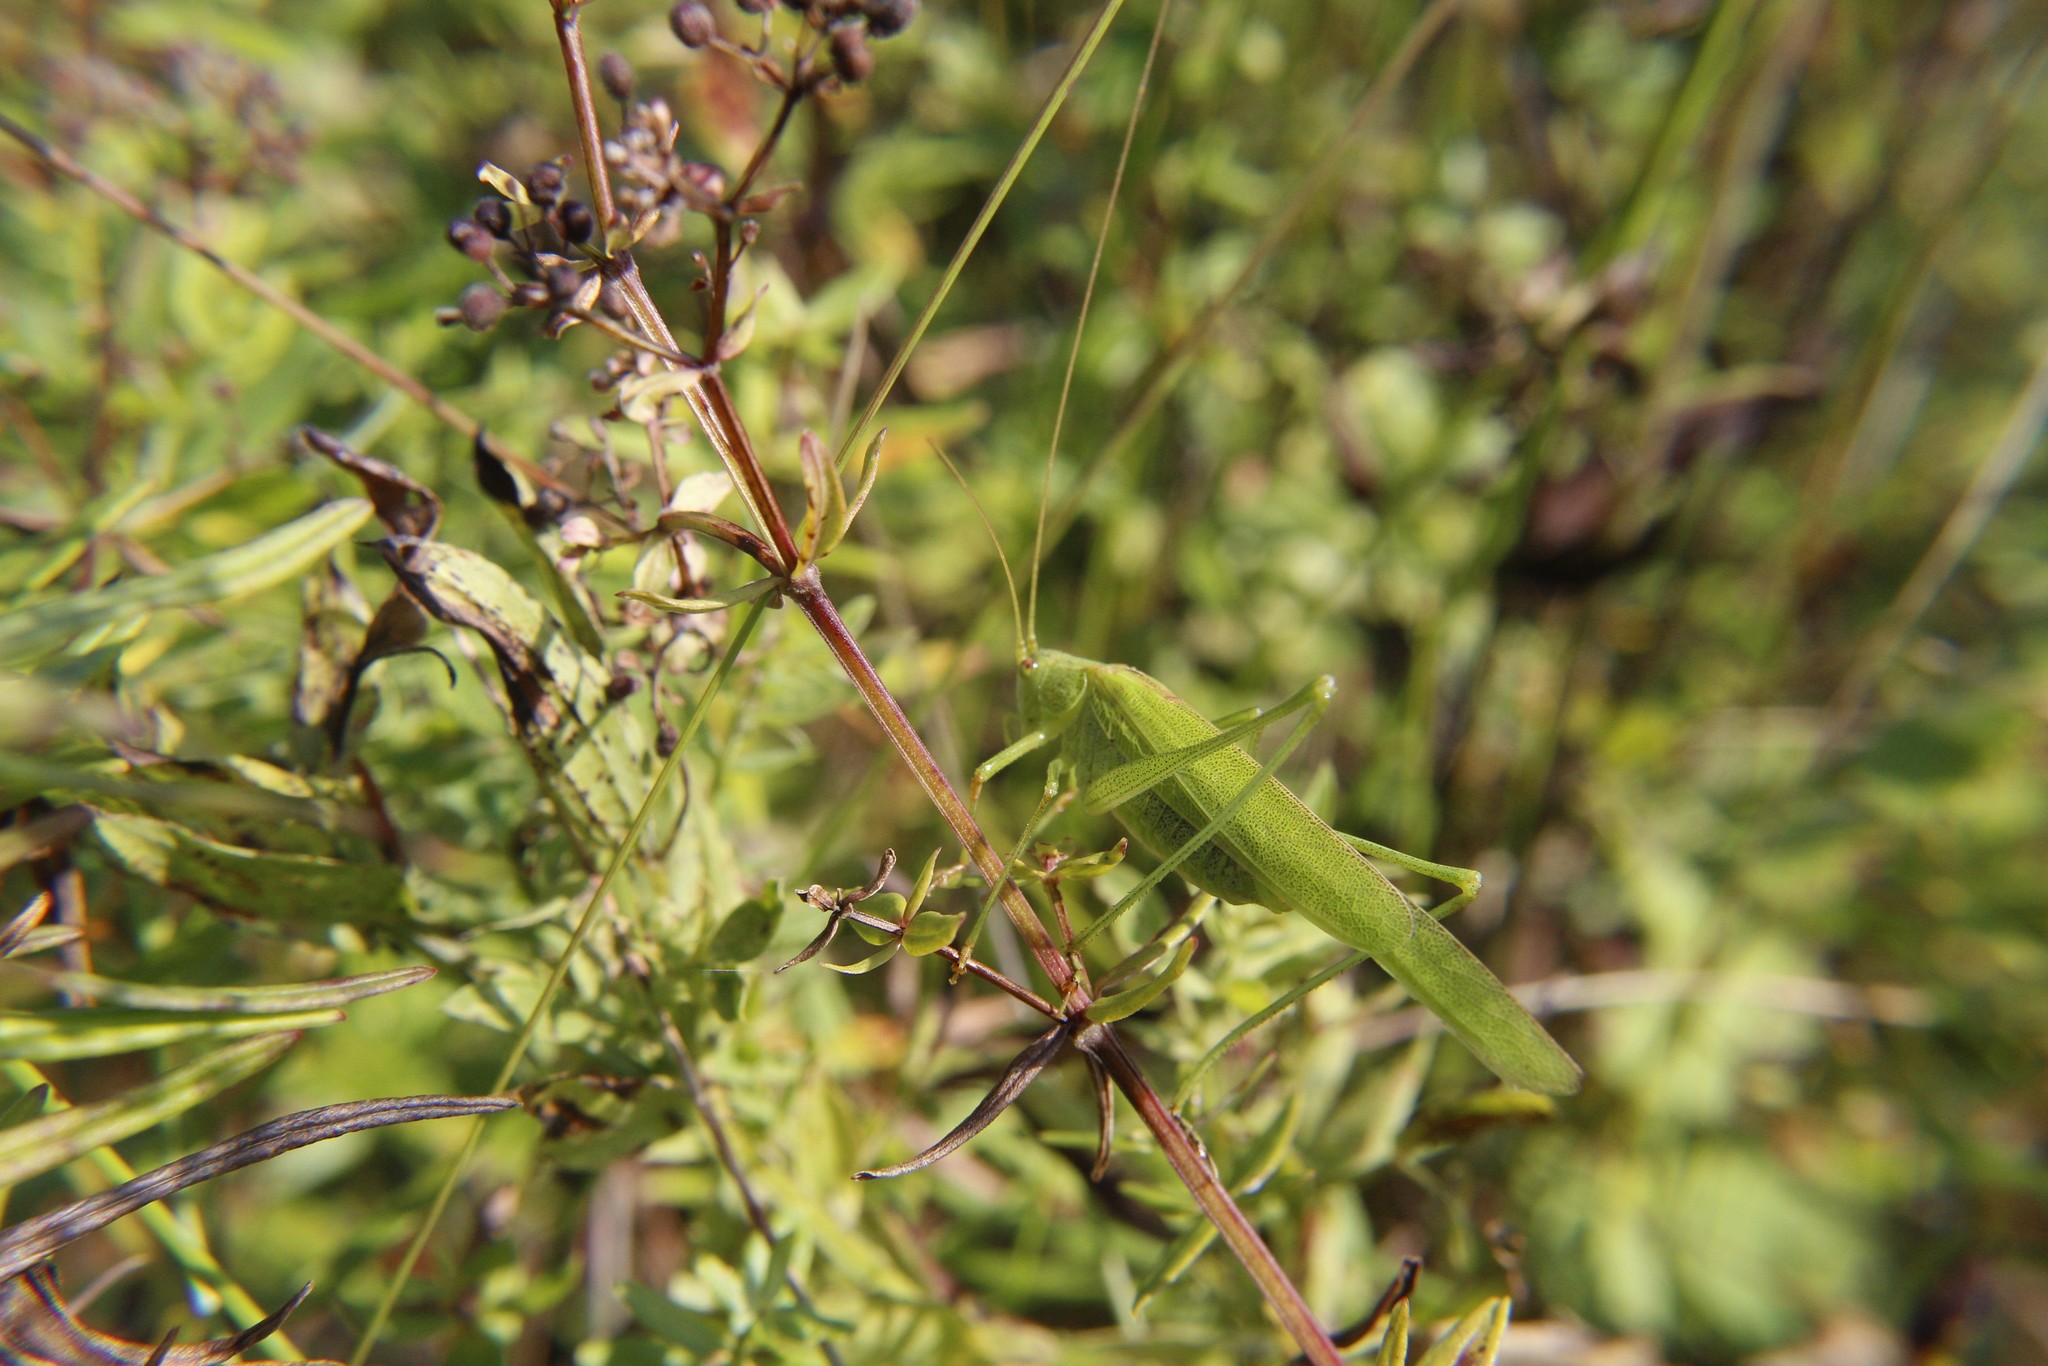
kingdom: Animalia
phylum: Arthropoda
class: Insecta
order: Orthoptera
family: Tettigoniidae
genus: Phaneroptera
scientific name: Phaneroptera falcata
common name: Sickle-bearing bush-cricket
